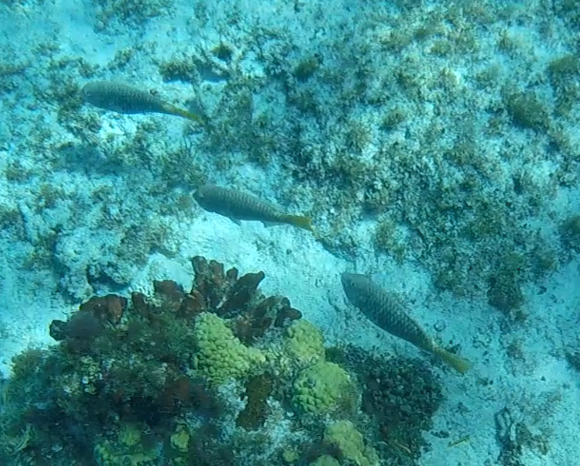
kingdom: Animalia
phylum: Chordata
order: Perciformes
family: Scaridae
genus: Sparisoma
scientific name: Sparisoma rubripinne
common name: Redfin parrotfish
